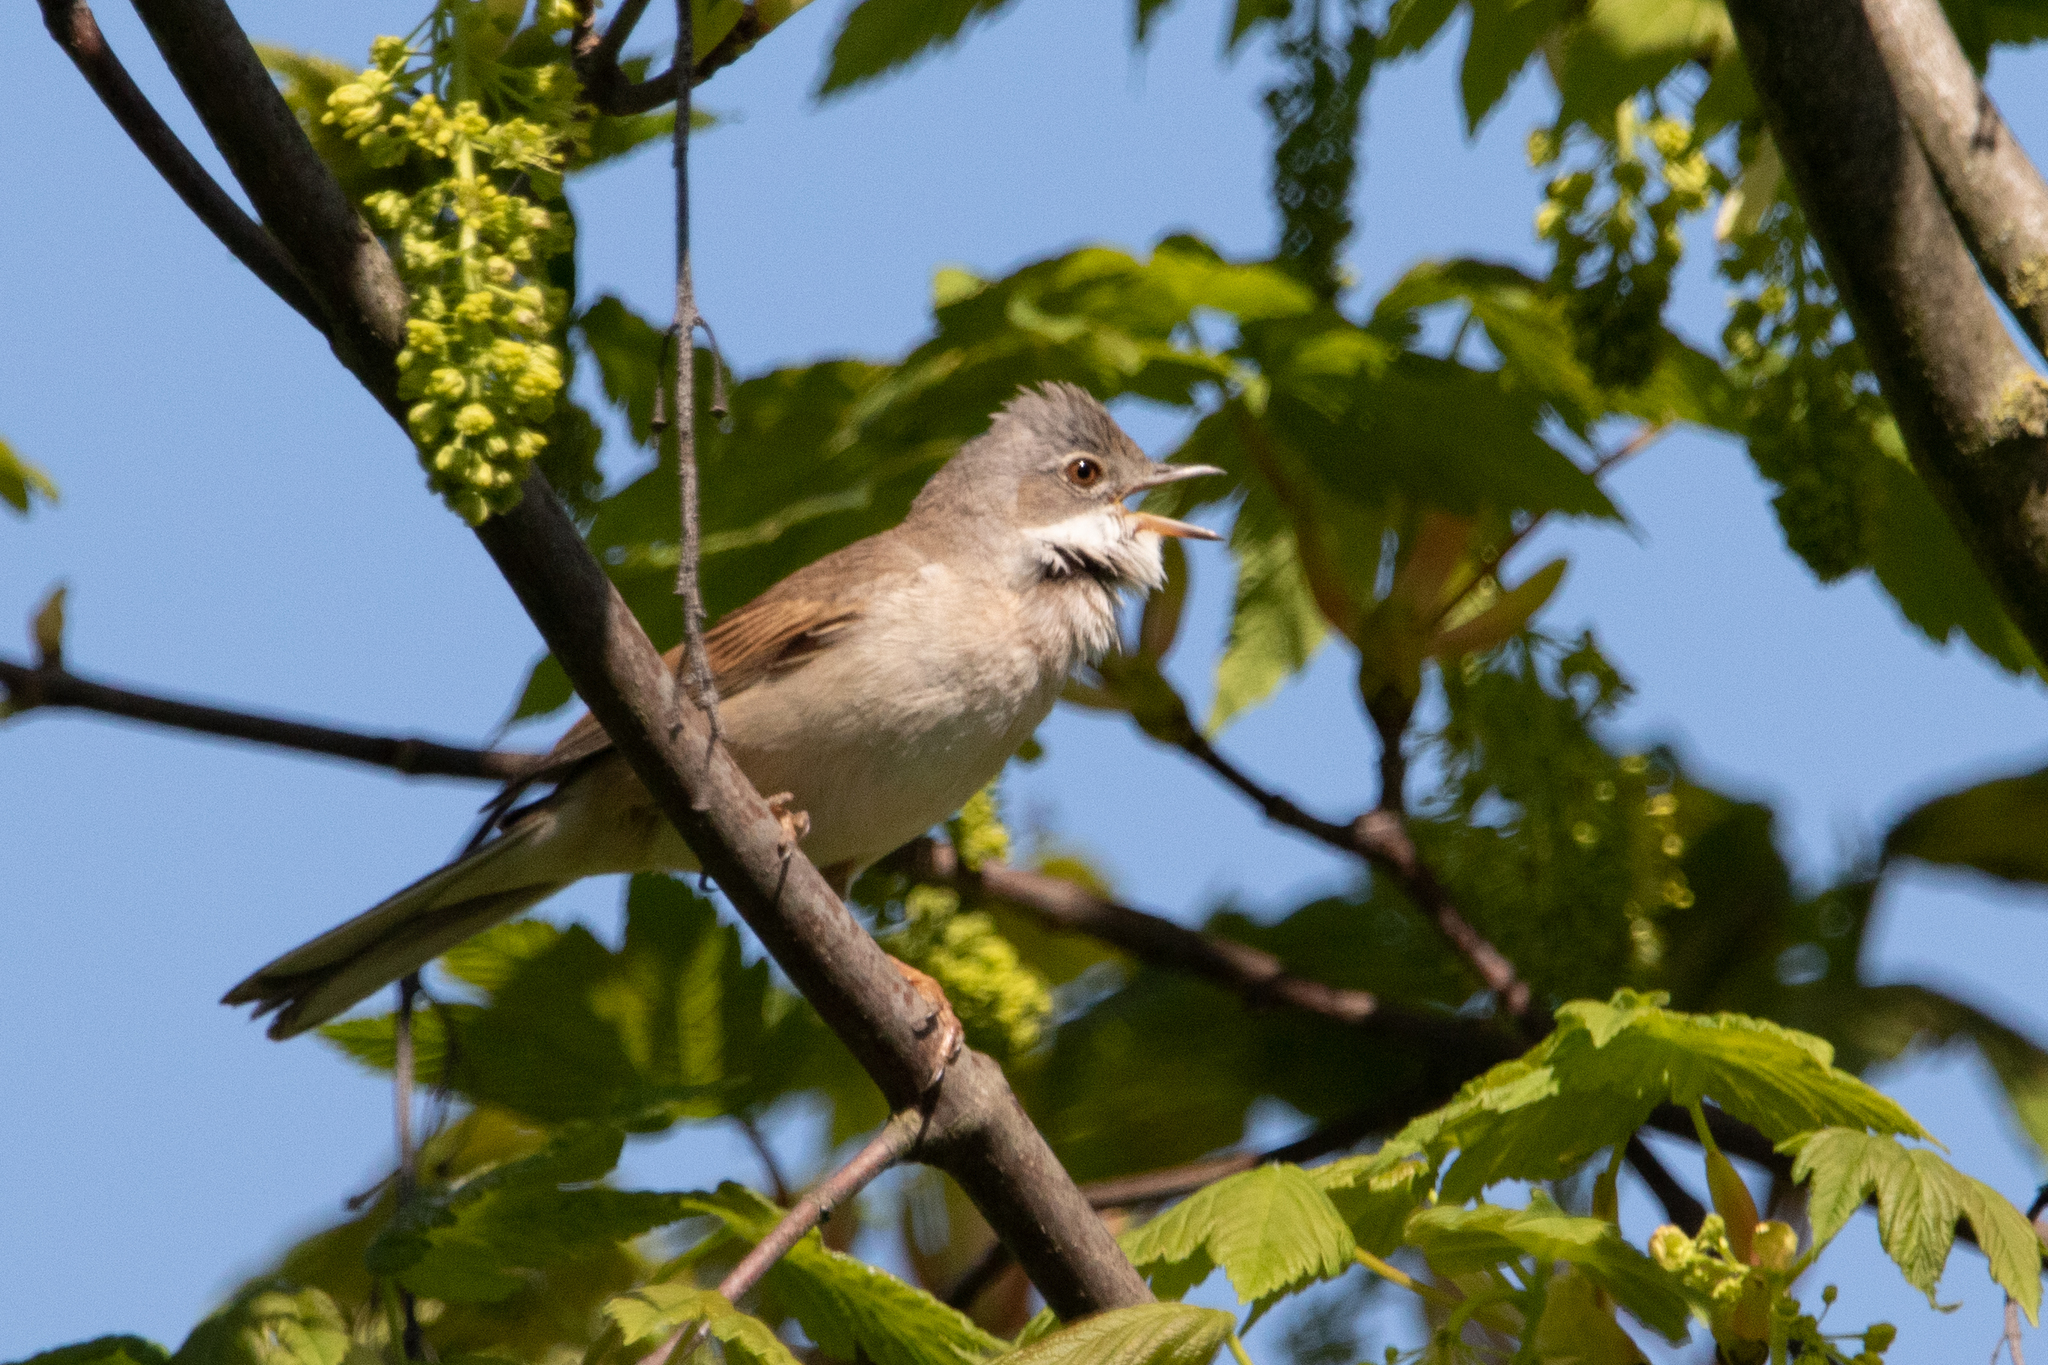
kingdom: Animalia
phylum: Chordata
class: Aves
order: Passeriformes
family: Sylviidae
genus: Sylvia
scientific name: Sylvia communis
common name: Common whitethroat
